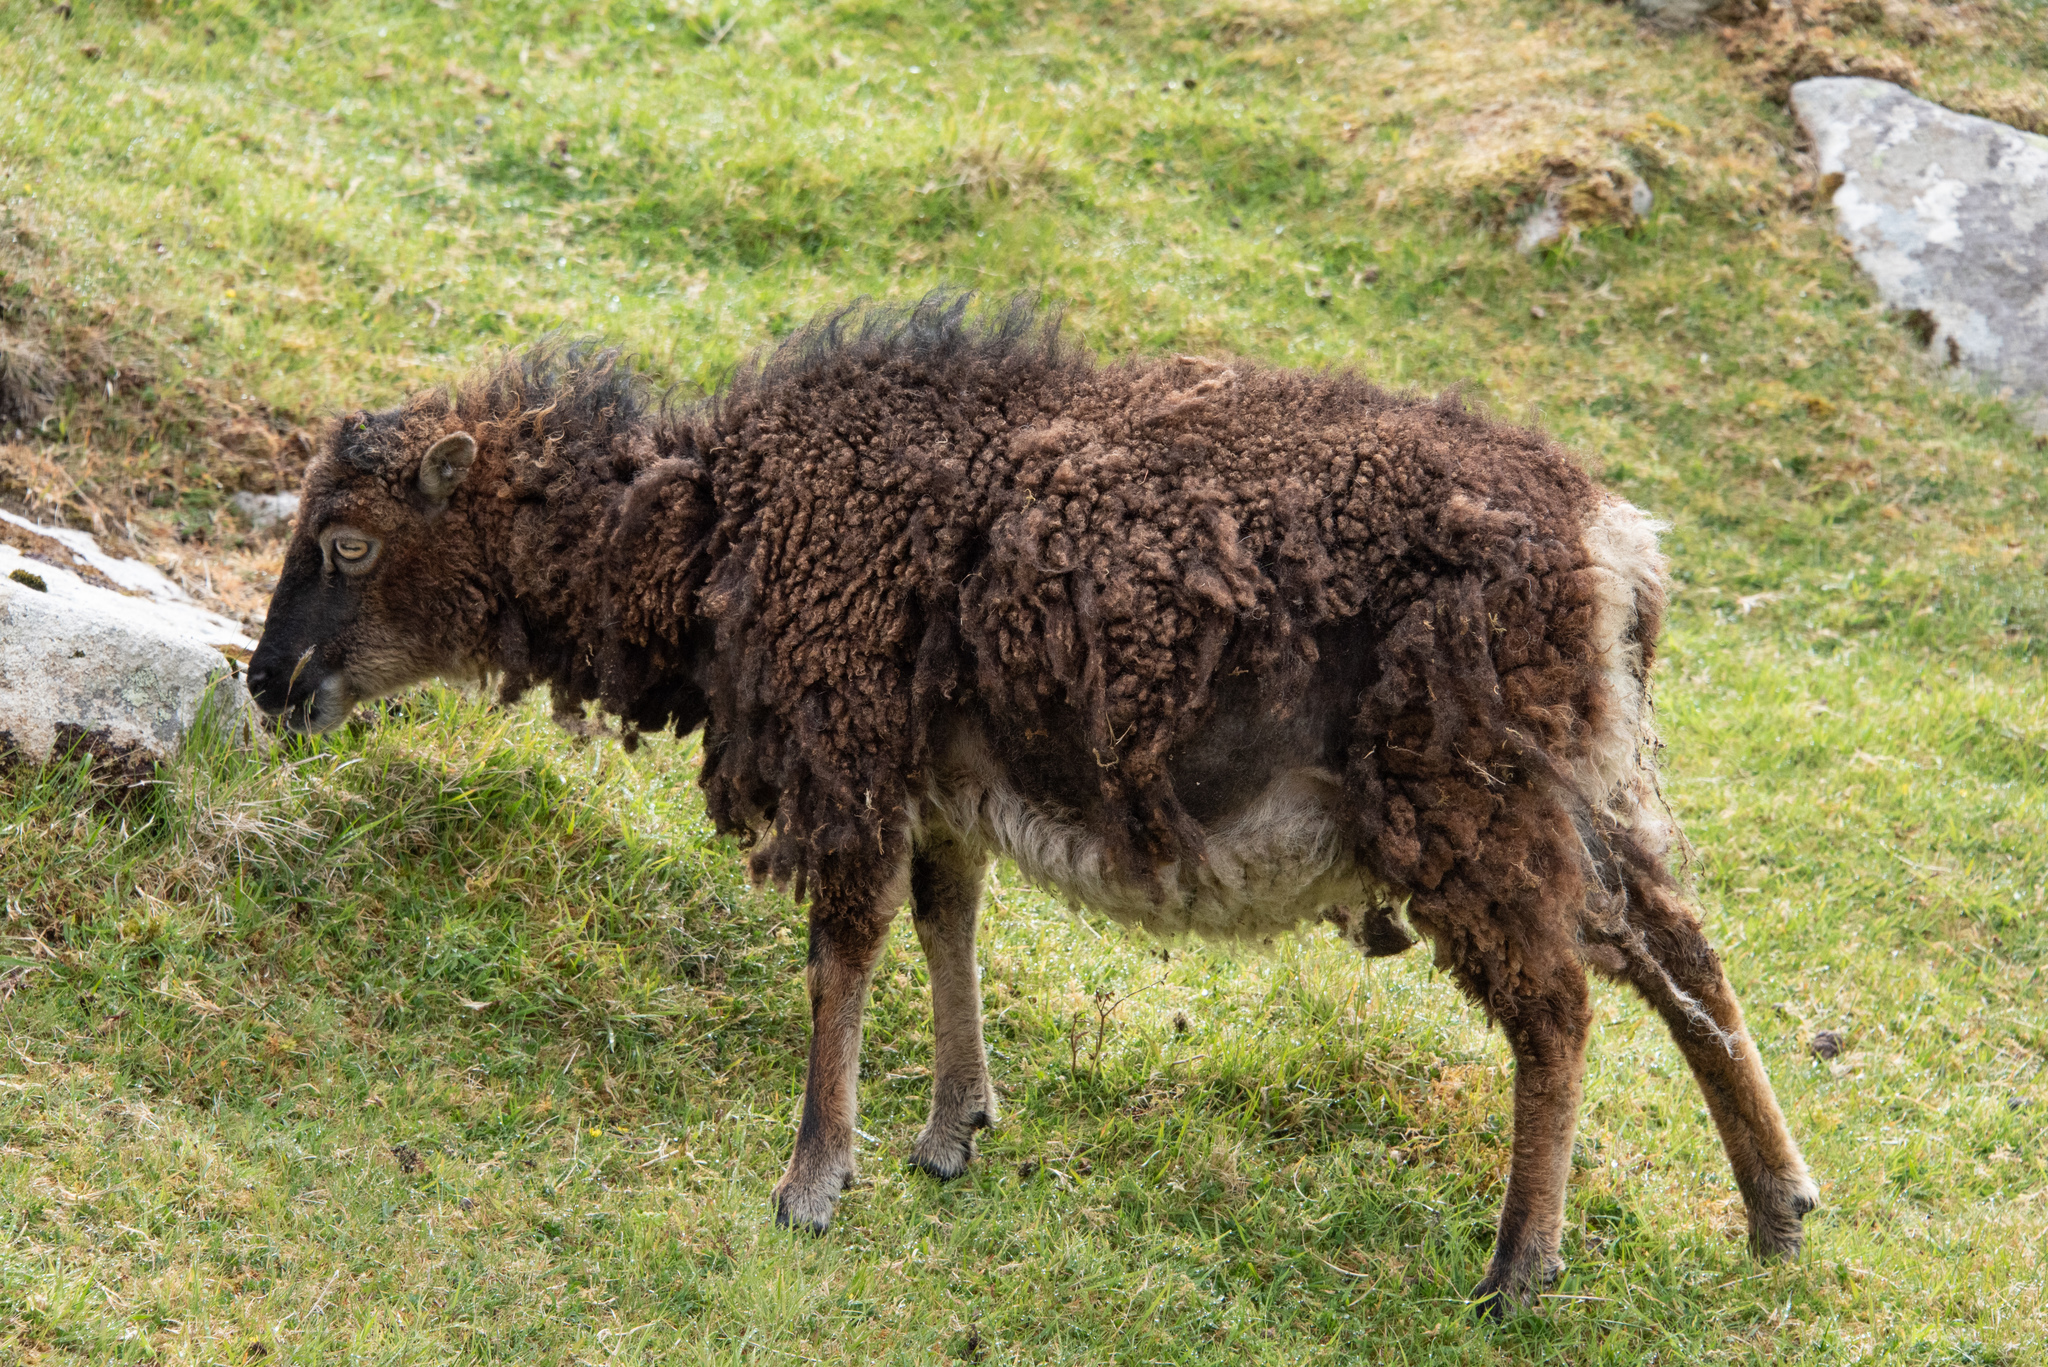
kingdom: Animalia
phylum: Chordata
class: Mammalia
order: Artiodactyla
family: Bovidae
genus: Ovis
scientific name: Ovis aries
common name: Domestic sheep
